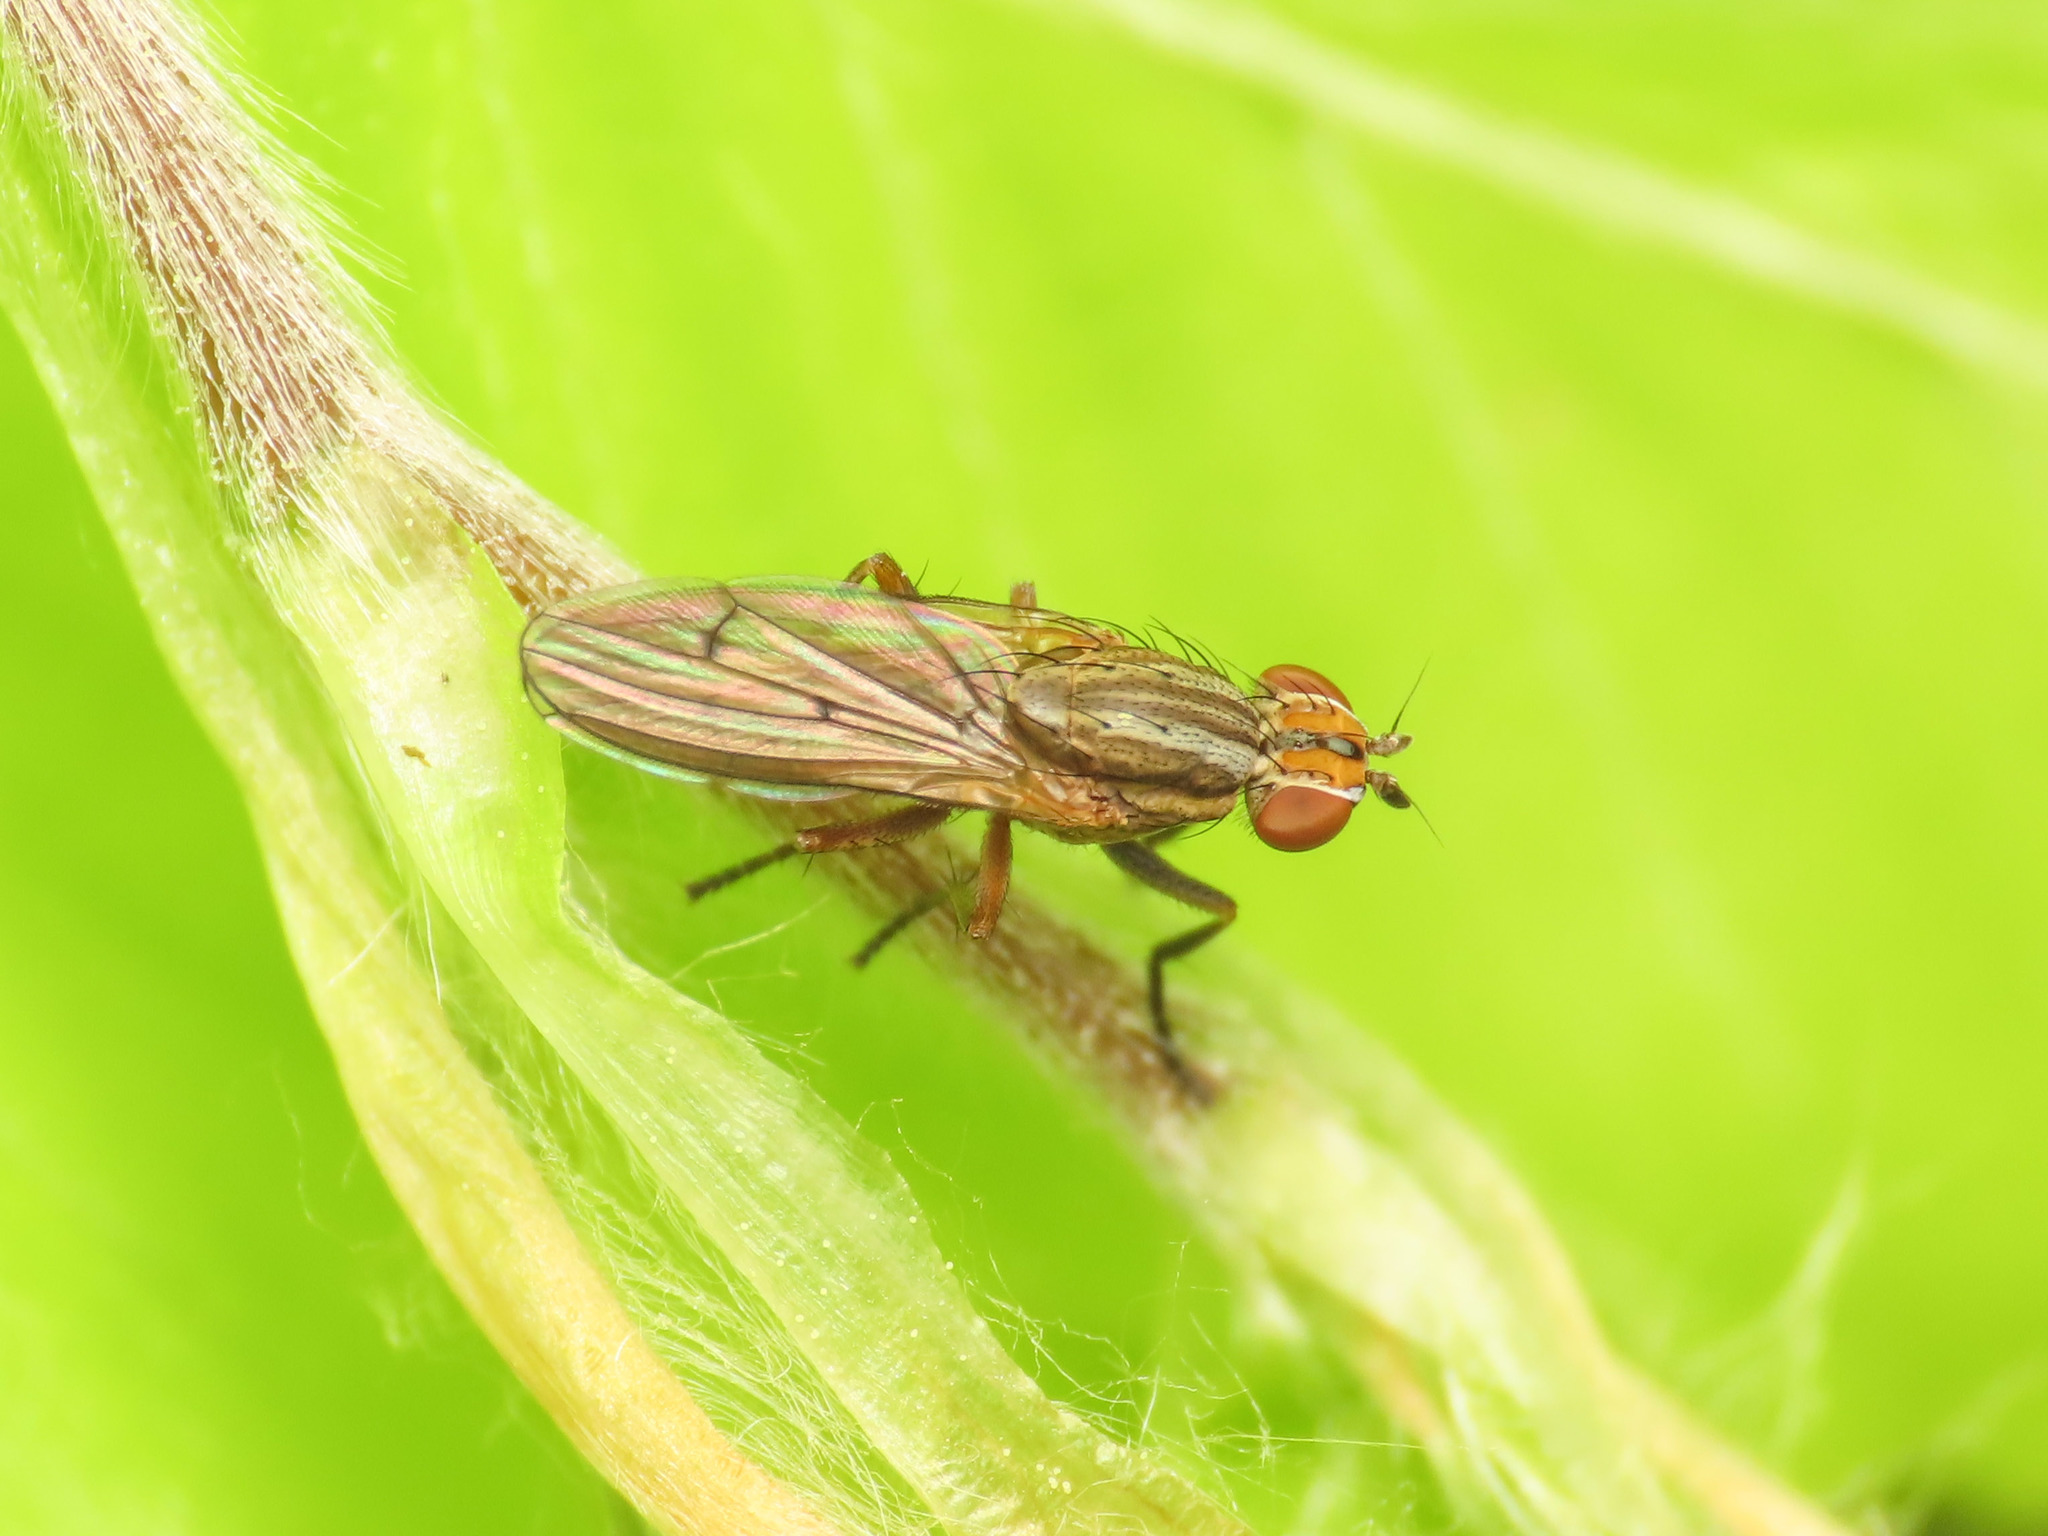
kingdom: Animalia
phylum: Arthropoda
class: Insecta
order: Diptera
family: Sciomyzidae
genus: Pherbellia
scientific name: Pherbellia cinerella
